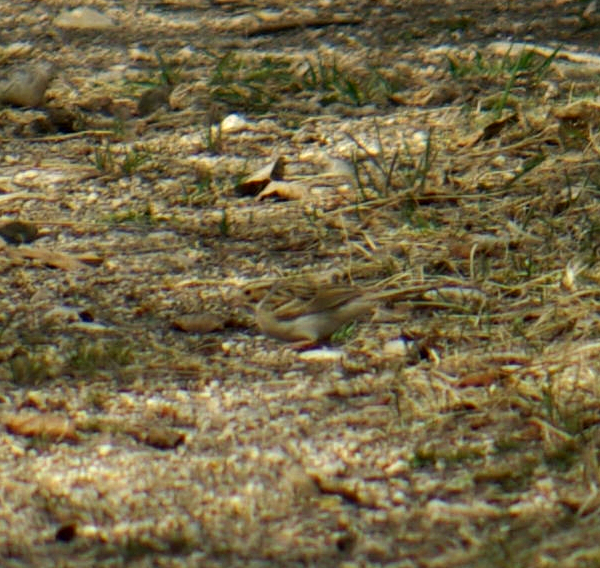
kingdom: Animalia
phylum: Chordata
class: Aves
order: Passeriformes
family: Passerellidae
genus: Spizella
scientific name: Spizella pallida
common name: Clay-colored sparrow
